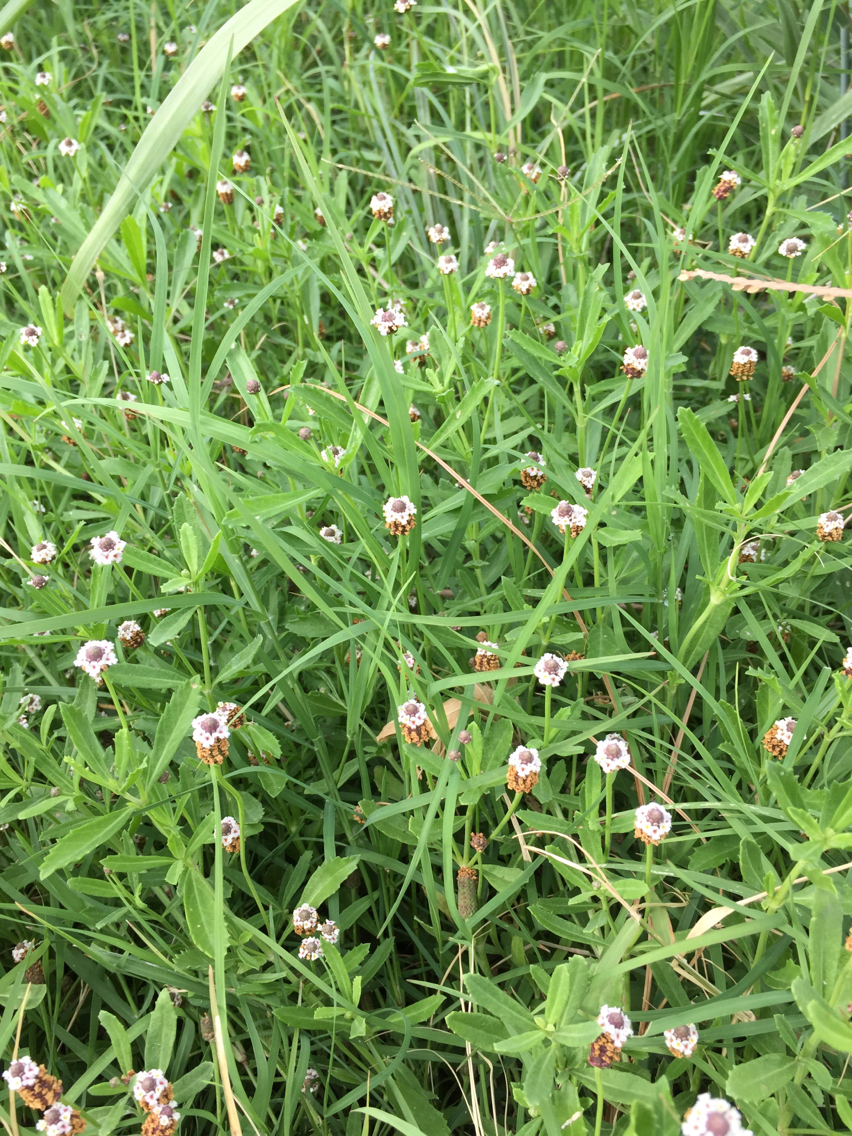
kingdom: Plantae
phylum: Tracheophyta
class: Magnoliopsida
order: Lamiales
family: Verbenaceae
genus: Phyla
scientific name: Phyla nodiflora
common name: Frogfruit
